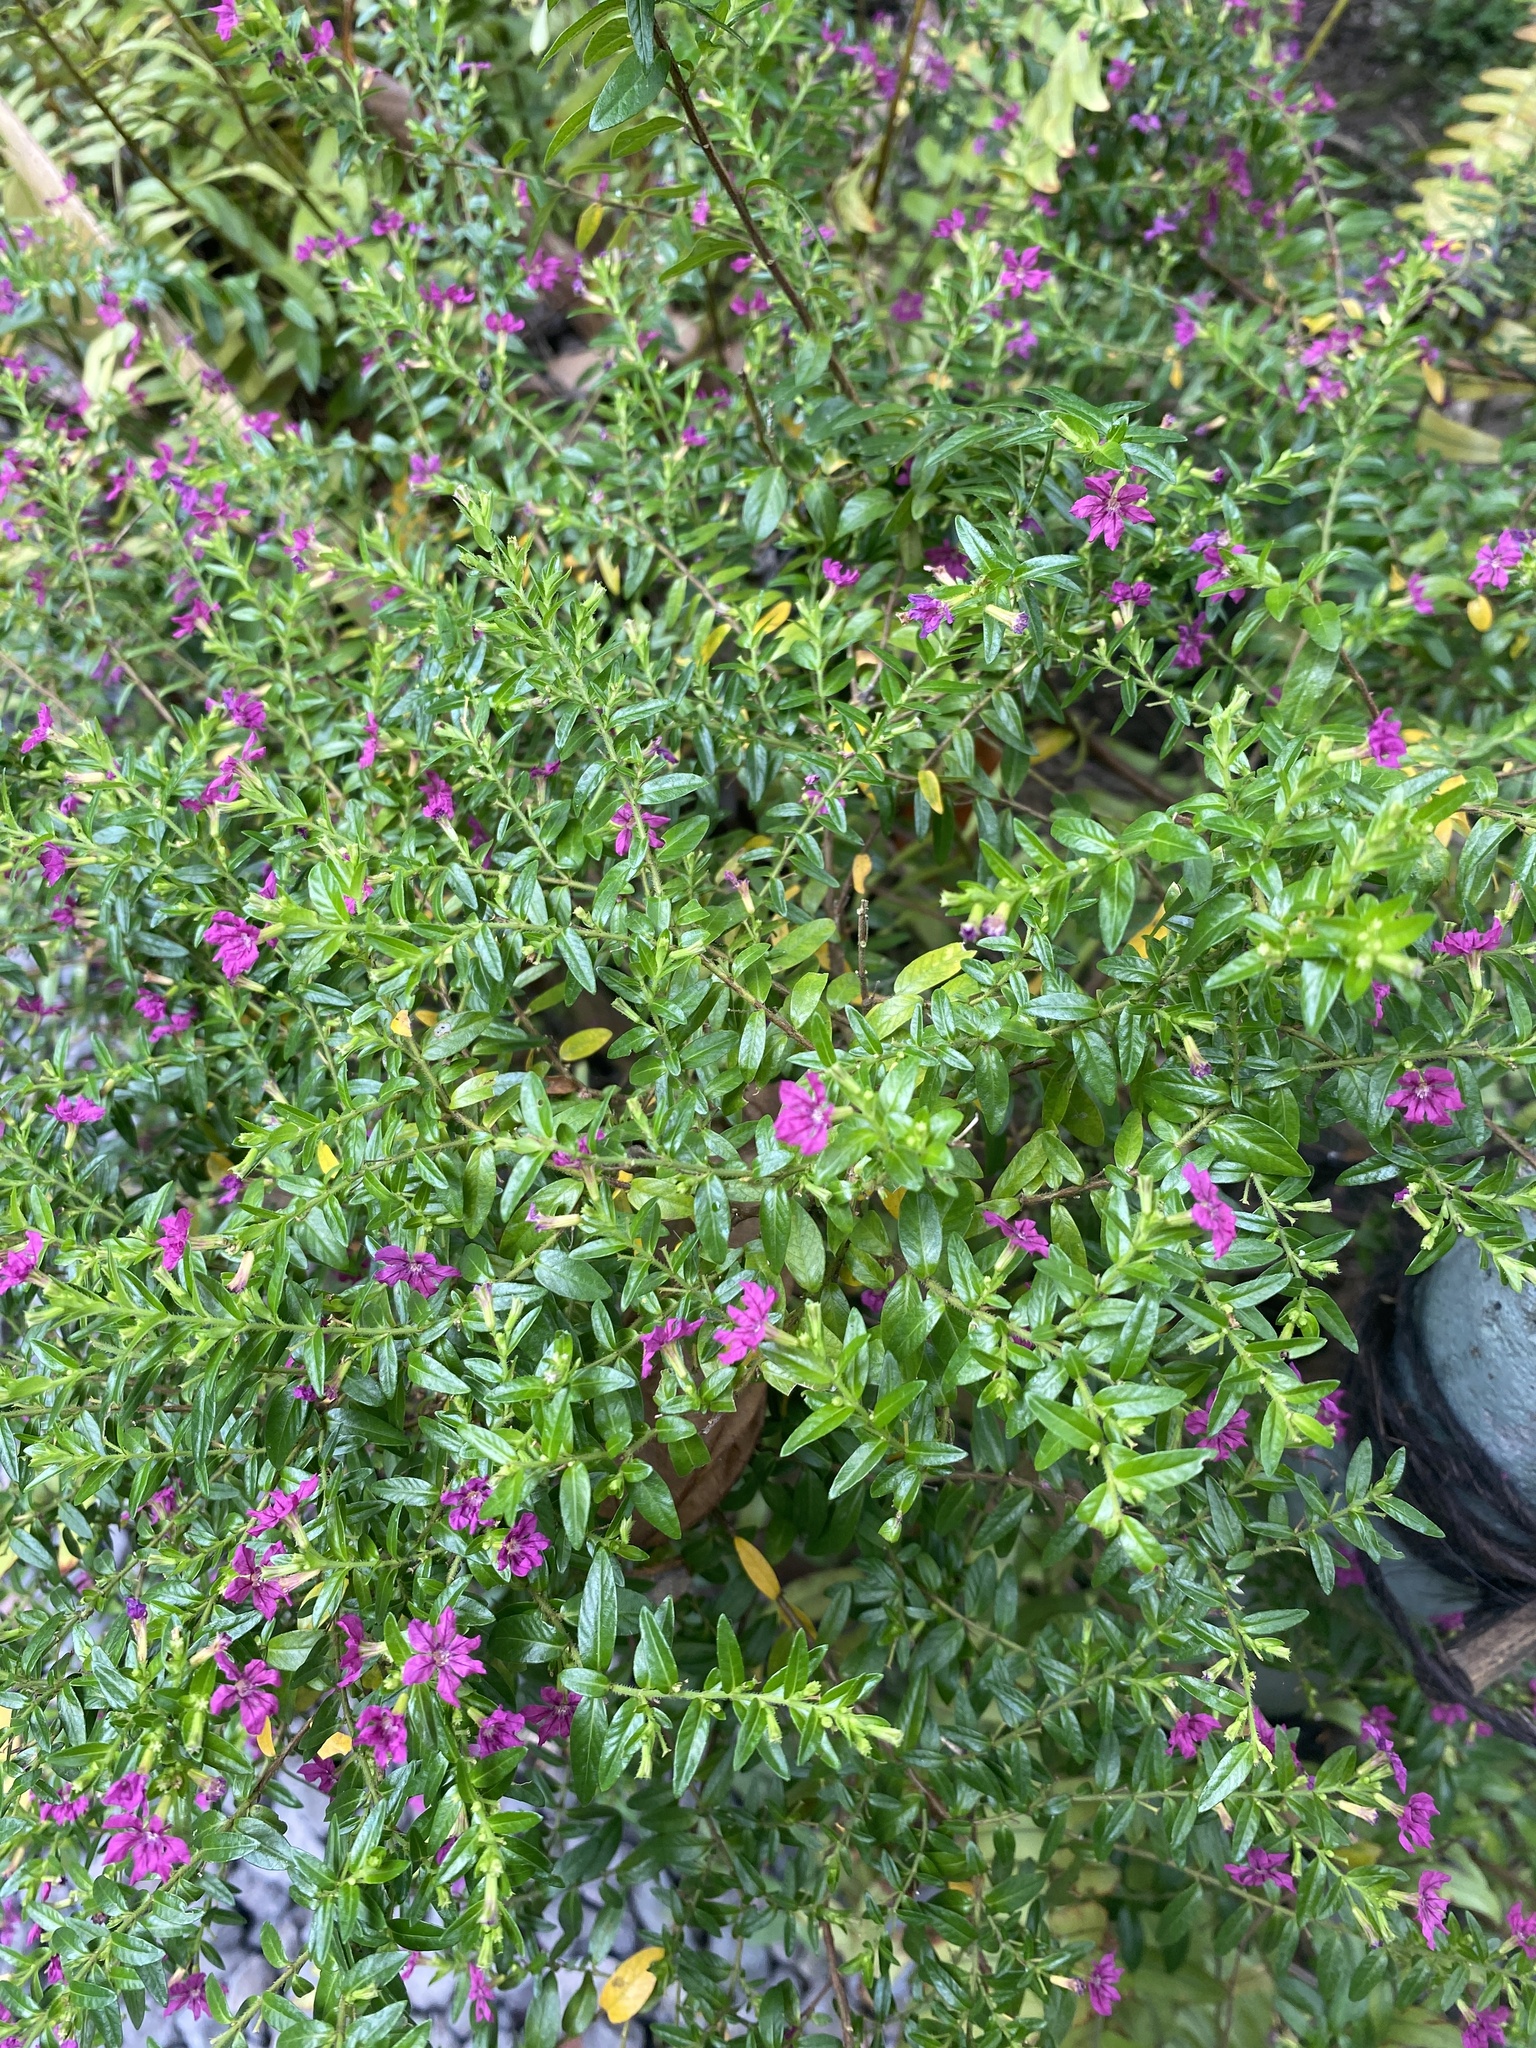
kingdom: Plantae
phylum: Tracheophyta
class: Magnoliopsida
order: Myrtales
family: Lythraceae
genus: Cuphea
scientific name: Cuphea hyssopifolia
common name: False heather
